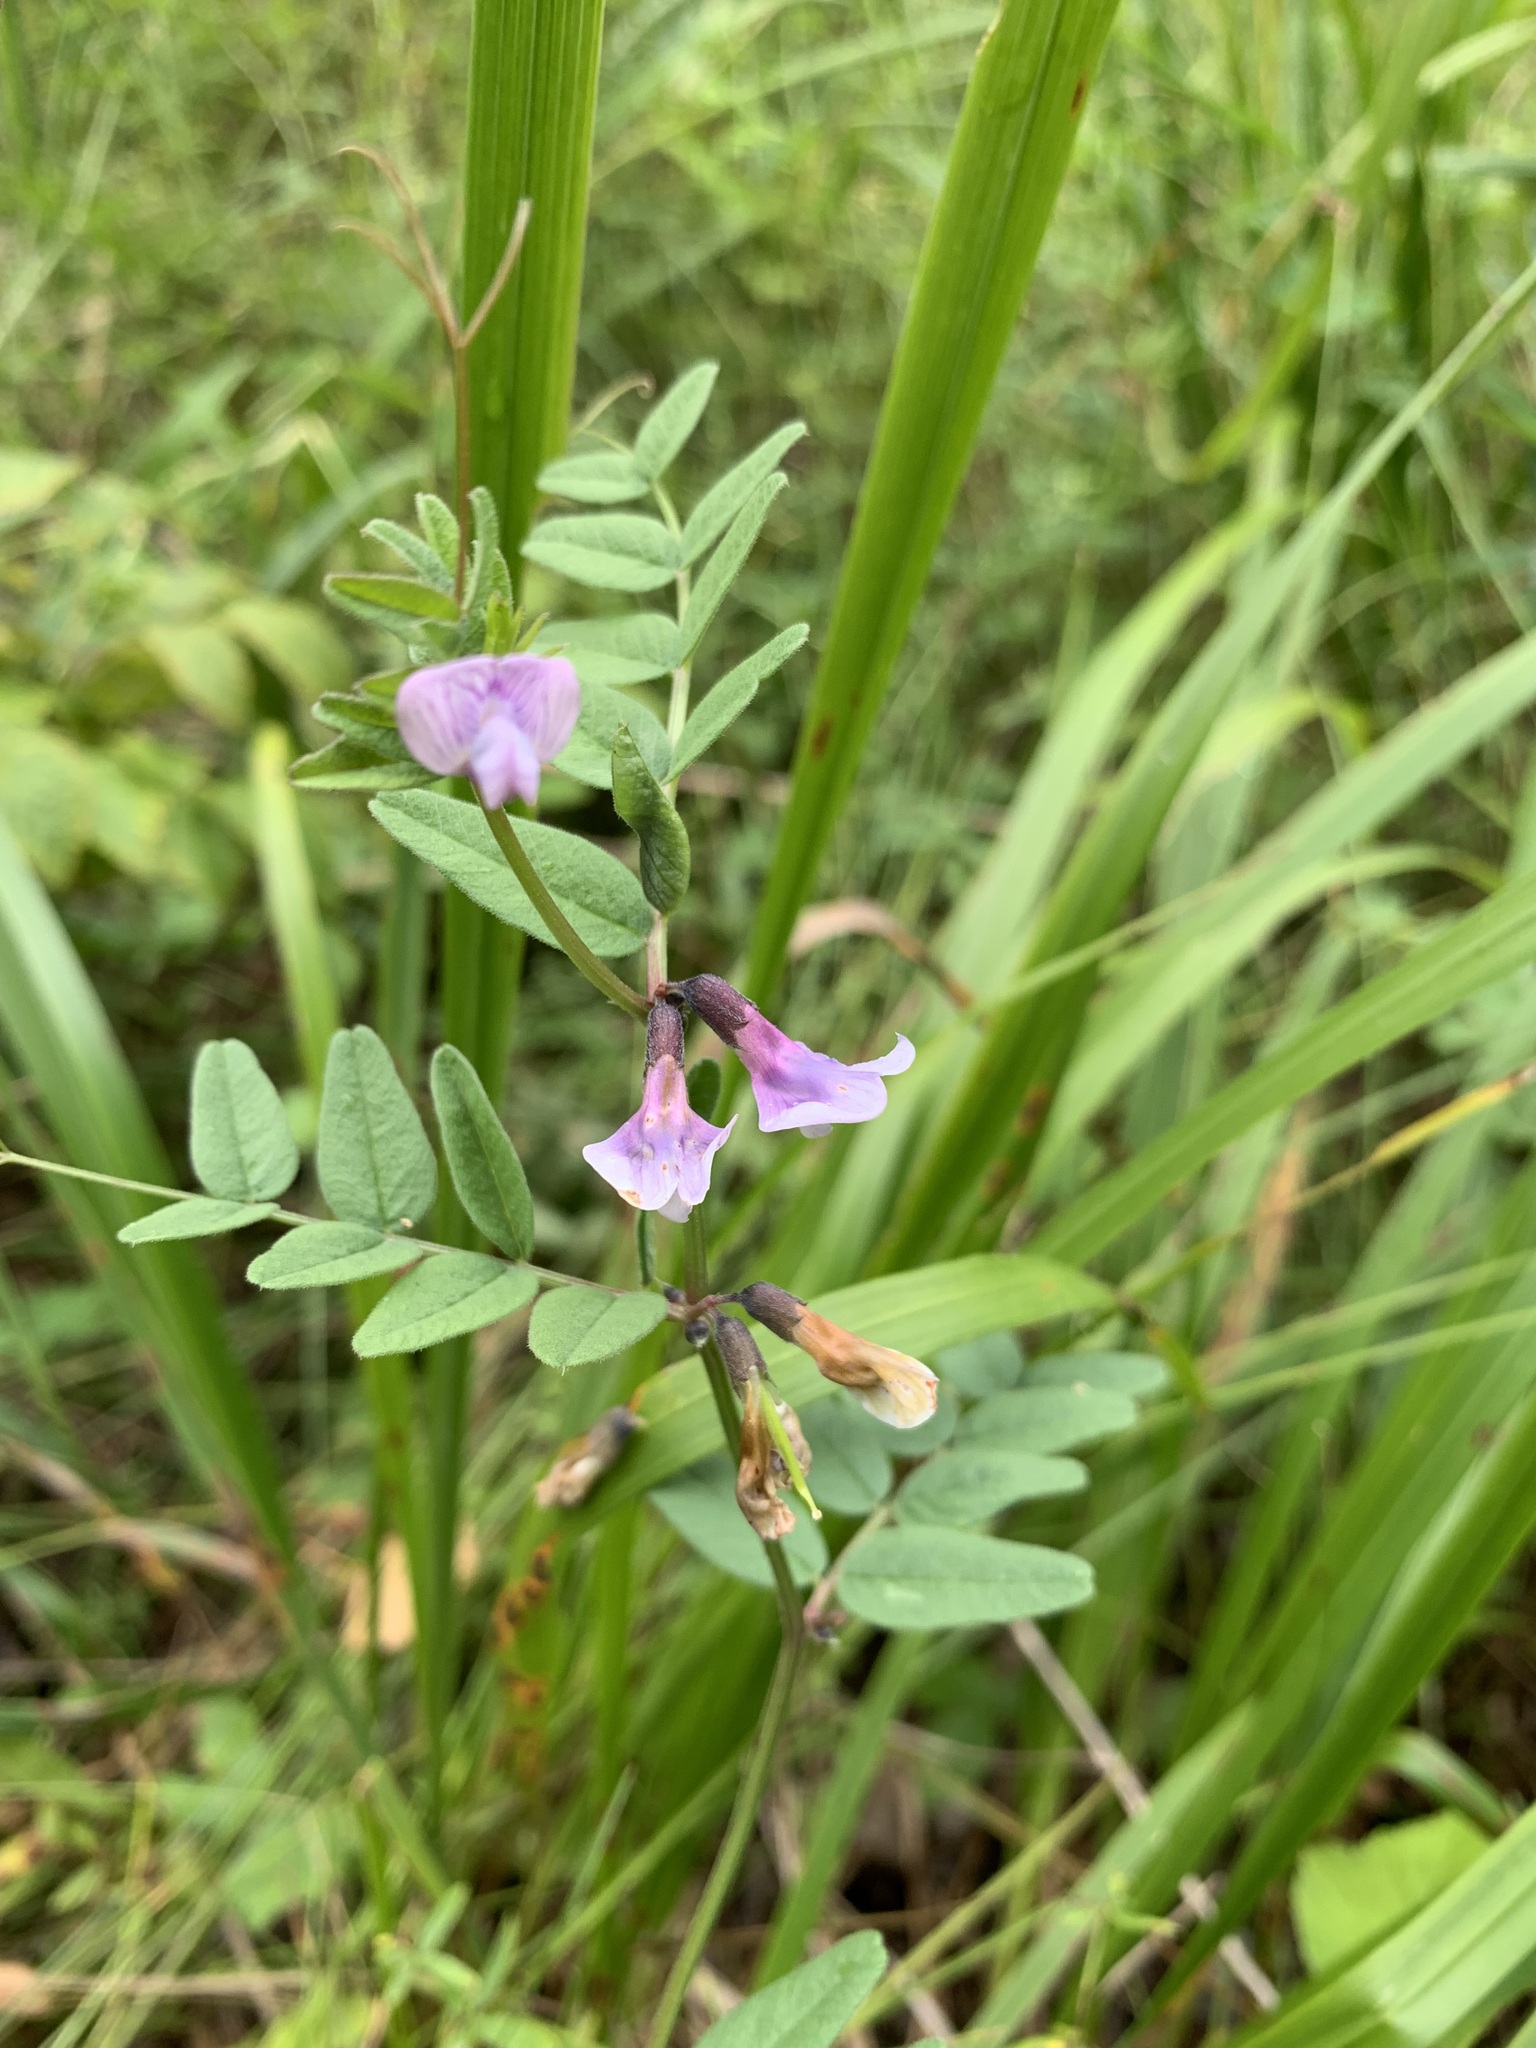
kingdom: Plantae
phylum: Tracheophyta
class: Magnoliopsida
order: Fabales
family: Fabaceae
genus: Vicia
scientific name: Vicia sepium
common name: Bush vetch
